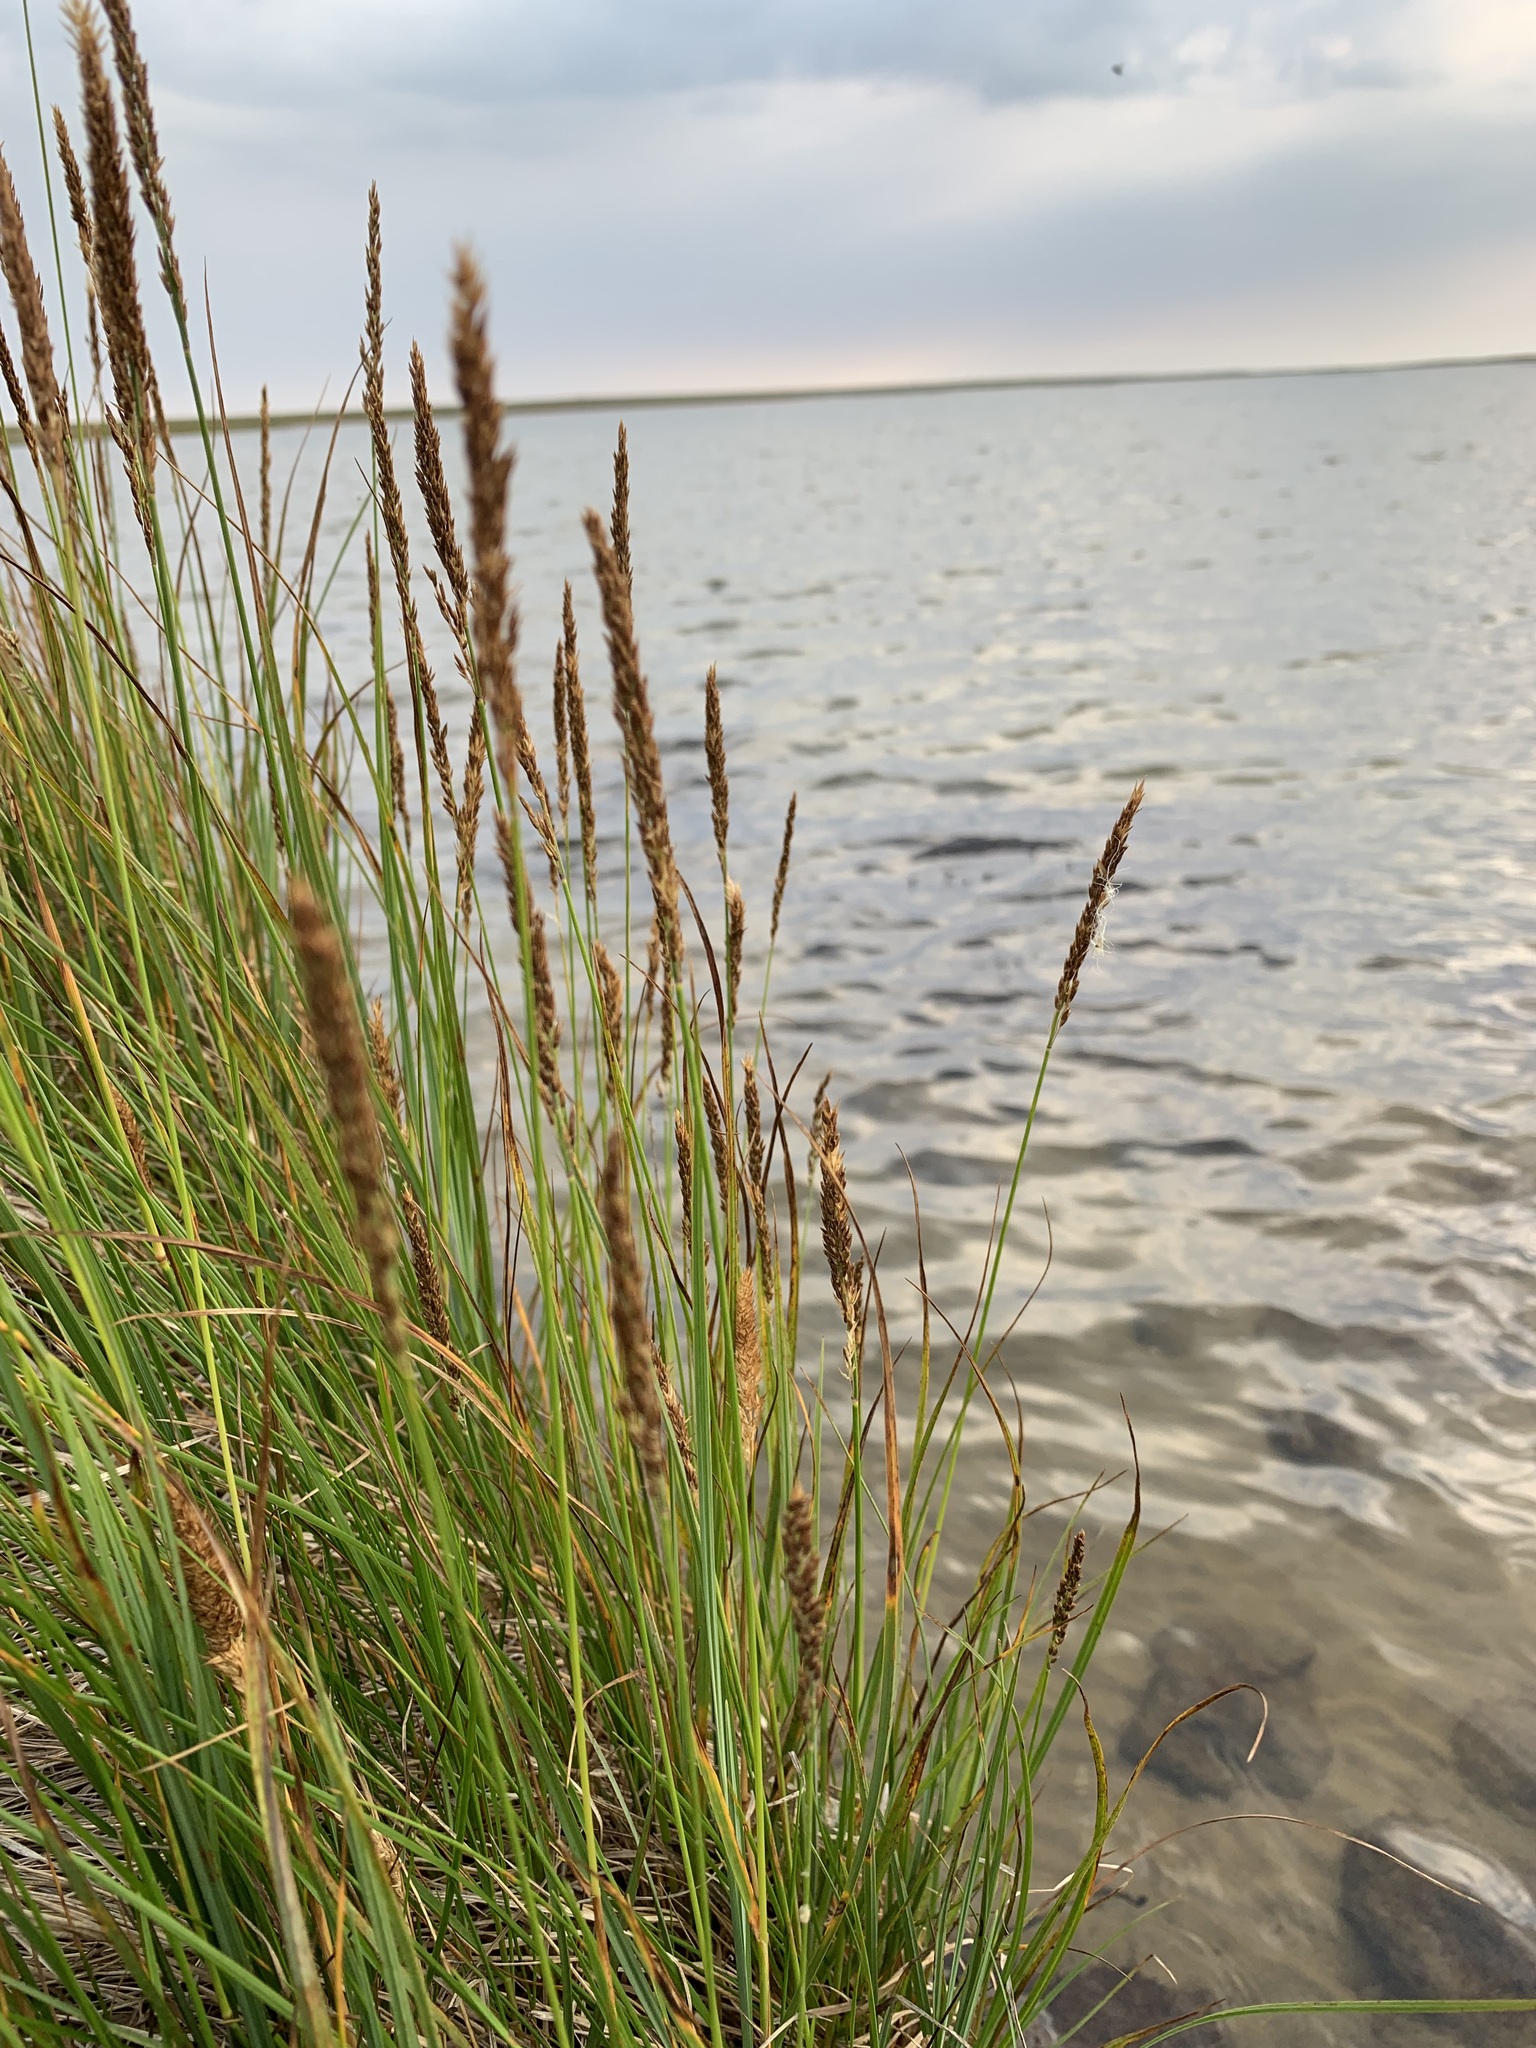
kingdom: Plantae
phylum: Tracheophyta
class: Liliopsida
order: Poales
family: Poaceae
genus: Calamagrostis
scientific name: Calamagrostis holmii
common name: Holm's reedgrass
